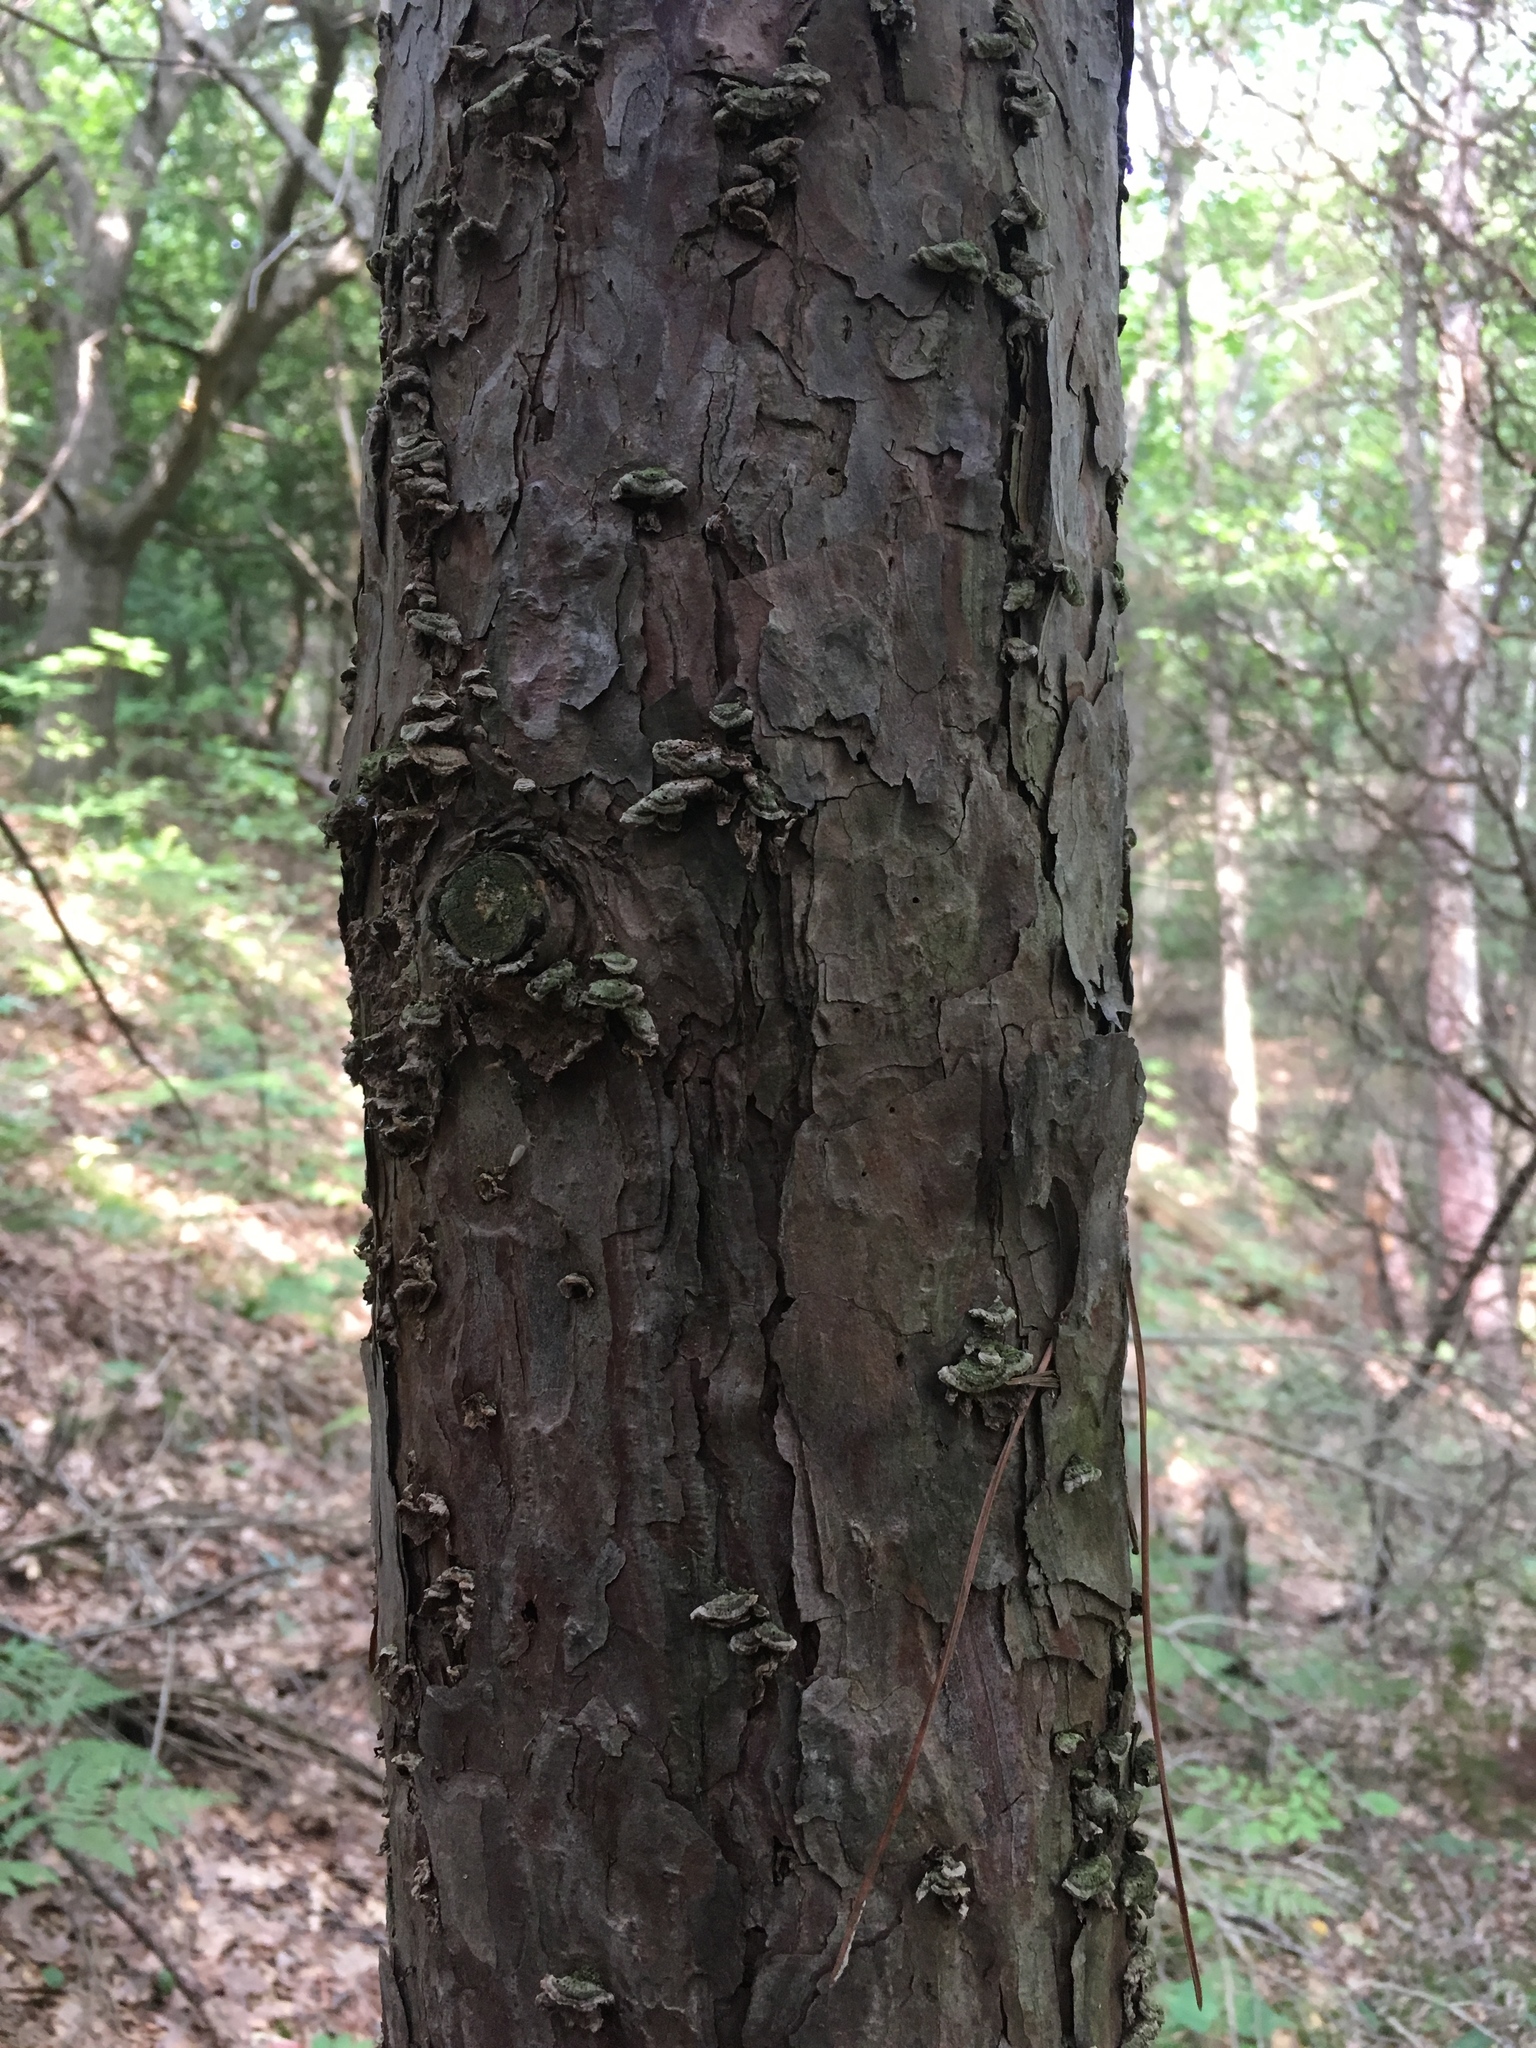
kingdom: Plantae
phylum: Tracheophyta
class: Pinopsida
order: Pinales
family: Pinaceae
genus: Pinus
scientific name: Pinus resinosa
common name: Norway pine
